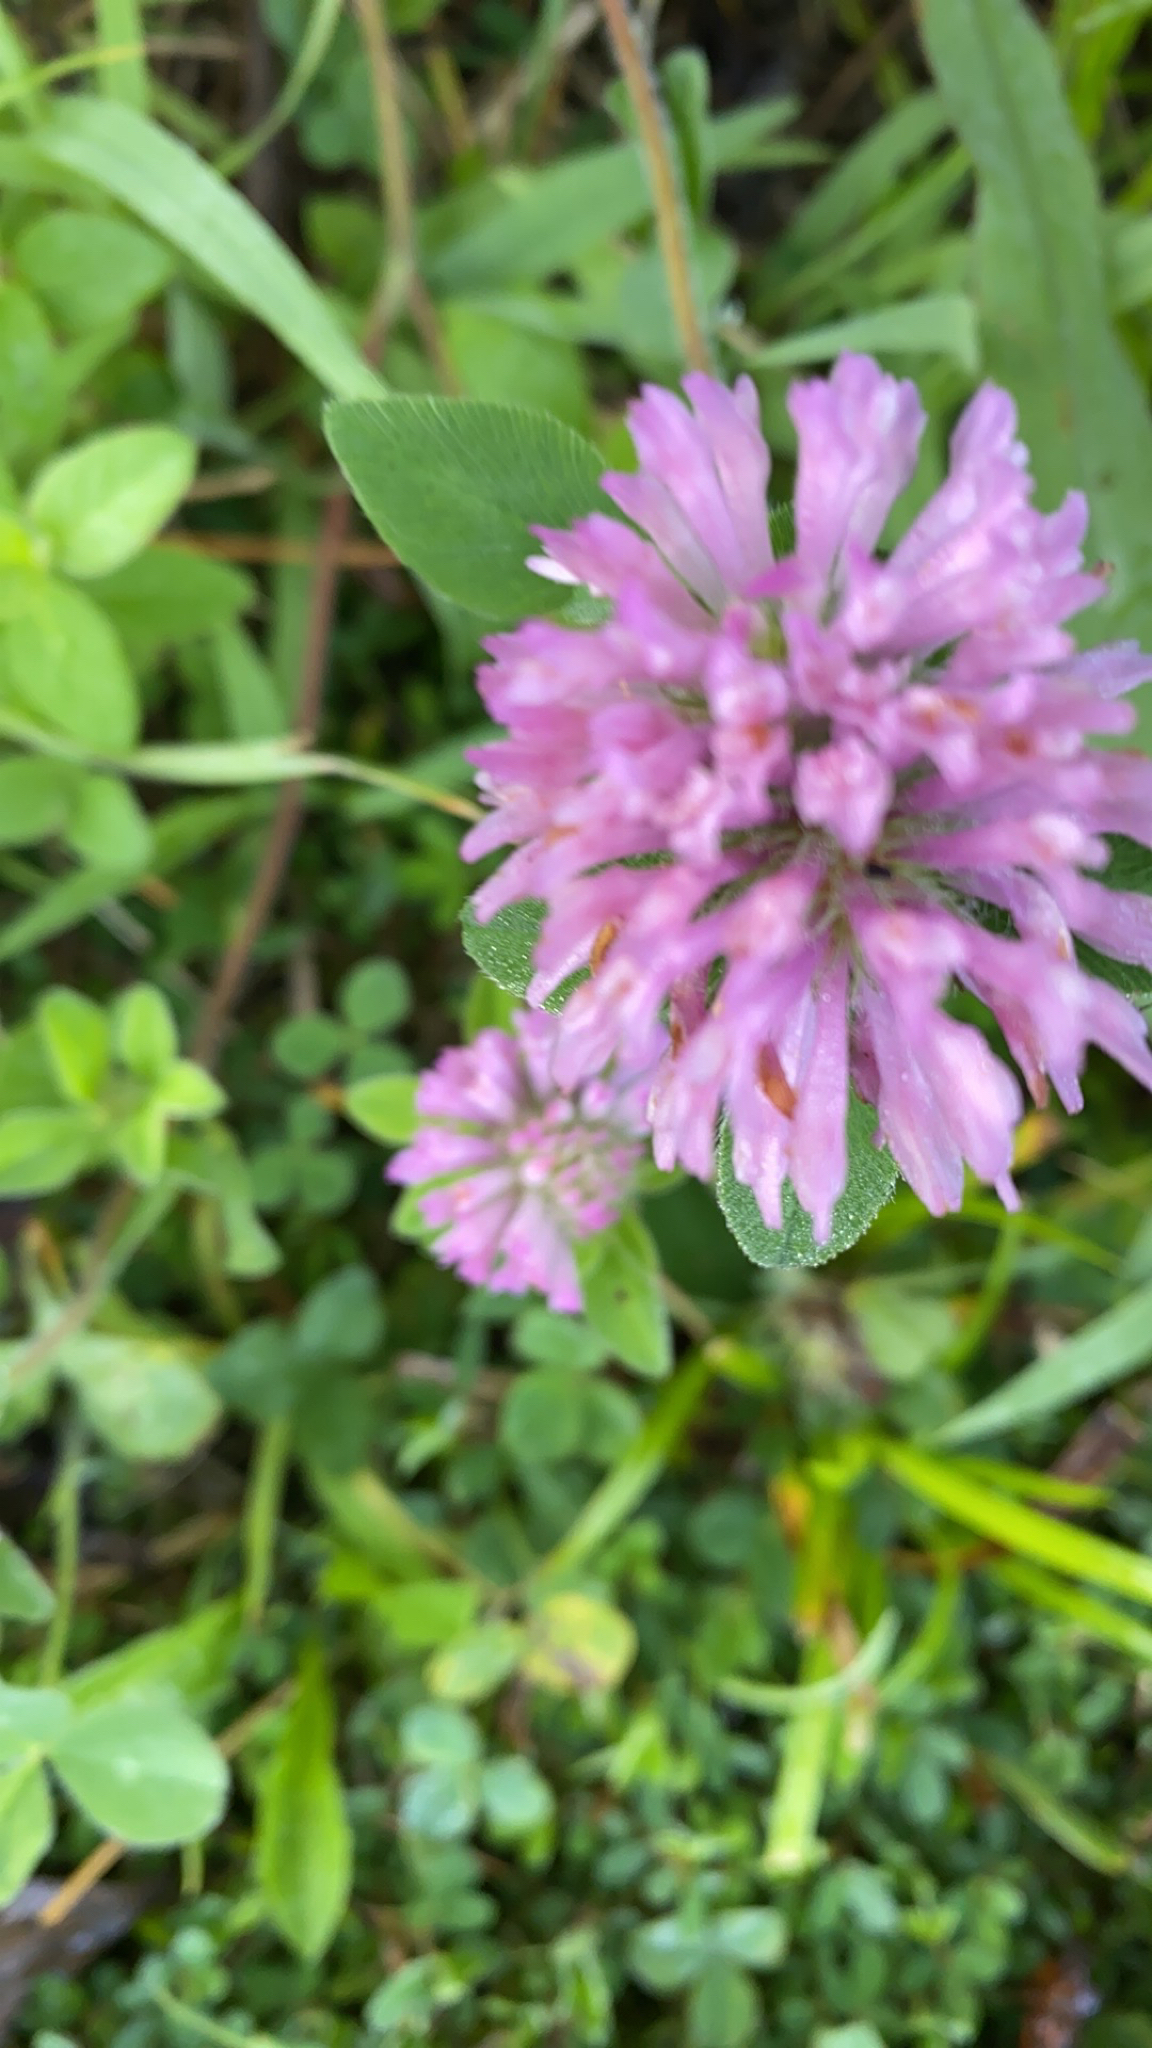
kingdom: Plantae
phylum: Tracheophyta
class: Magnoliopsida
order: Fabales
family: Fabaceae
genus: Trifolium
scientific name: Trifolium pratense
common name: Red clover
